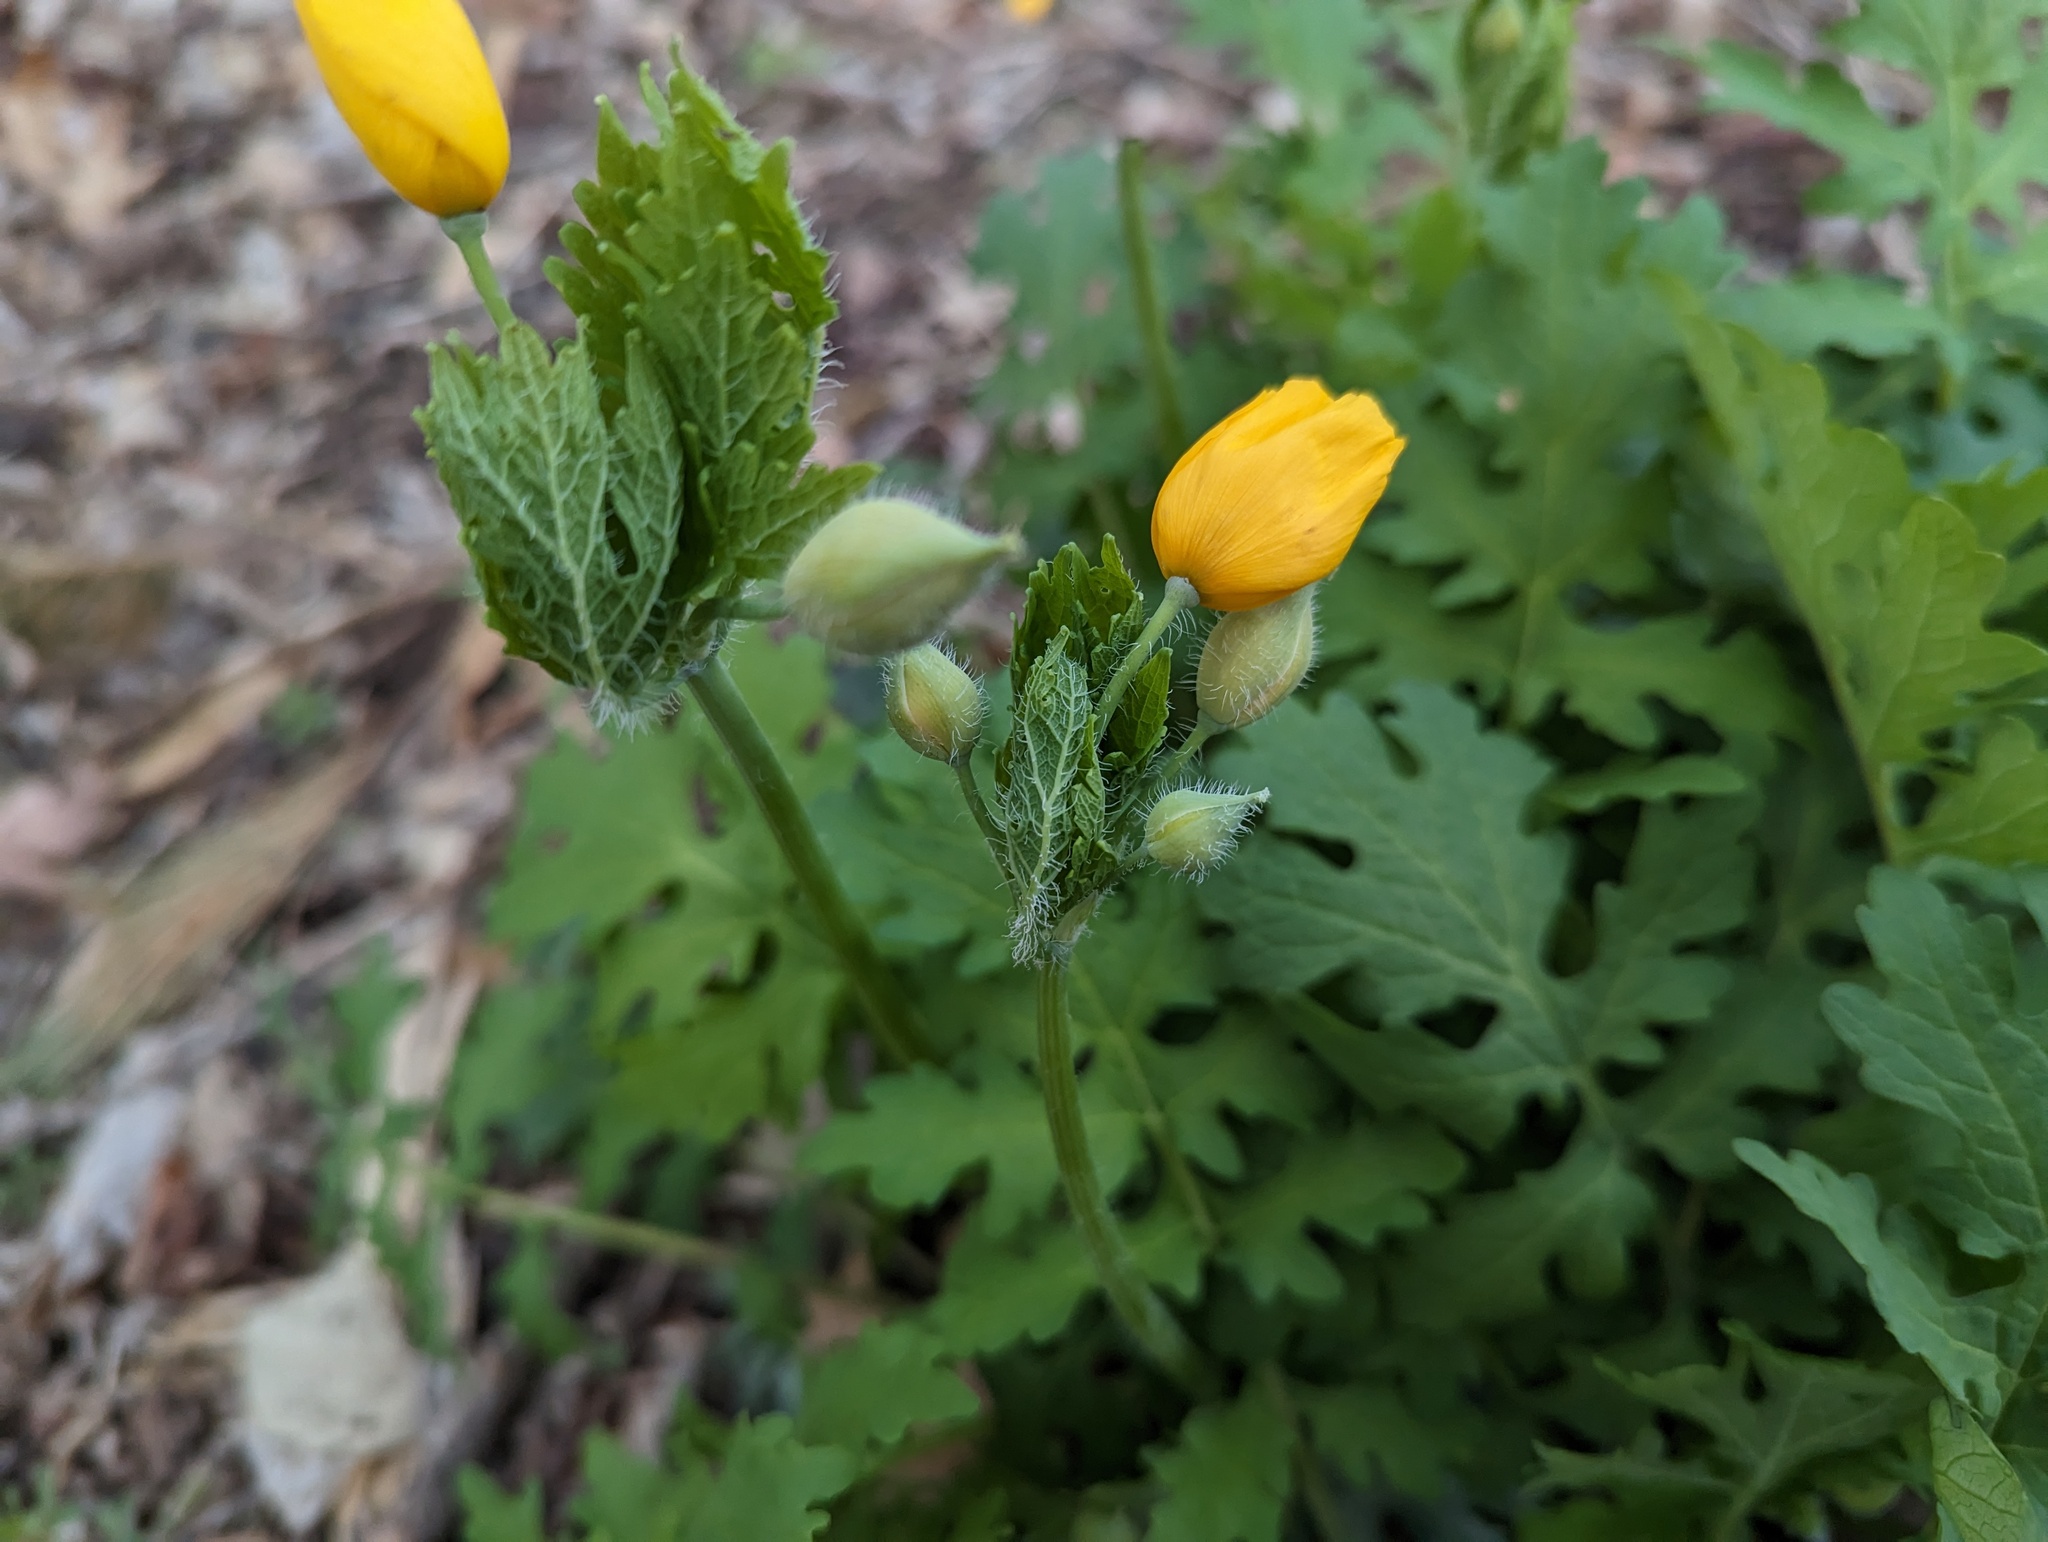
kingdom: Plantae
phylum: Tracheophyta
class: Magnoliopsida
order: Ranunculales
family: Papaveraceae
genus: Stylophorum
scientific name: Stylophorum diphyllum
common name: Celandine poppy
